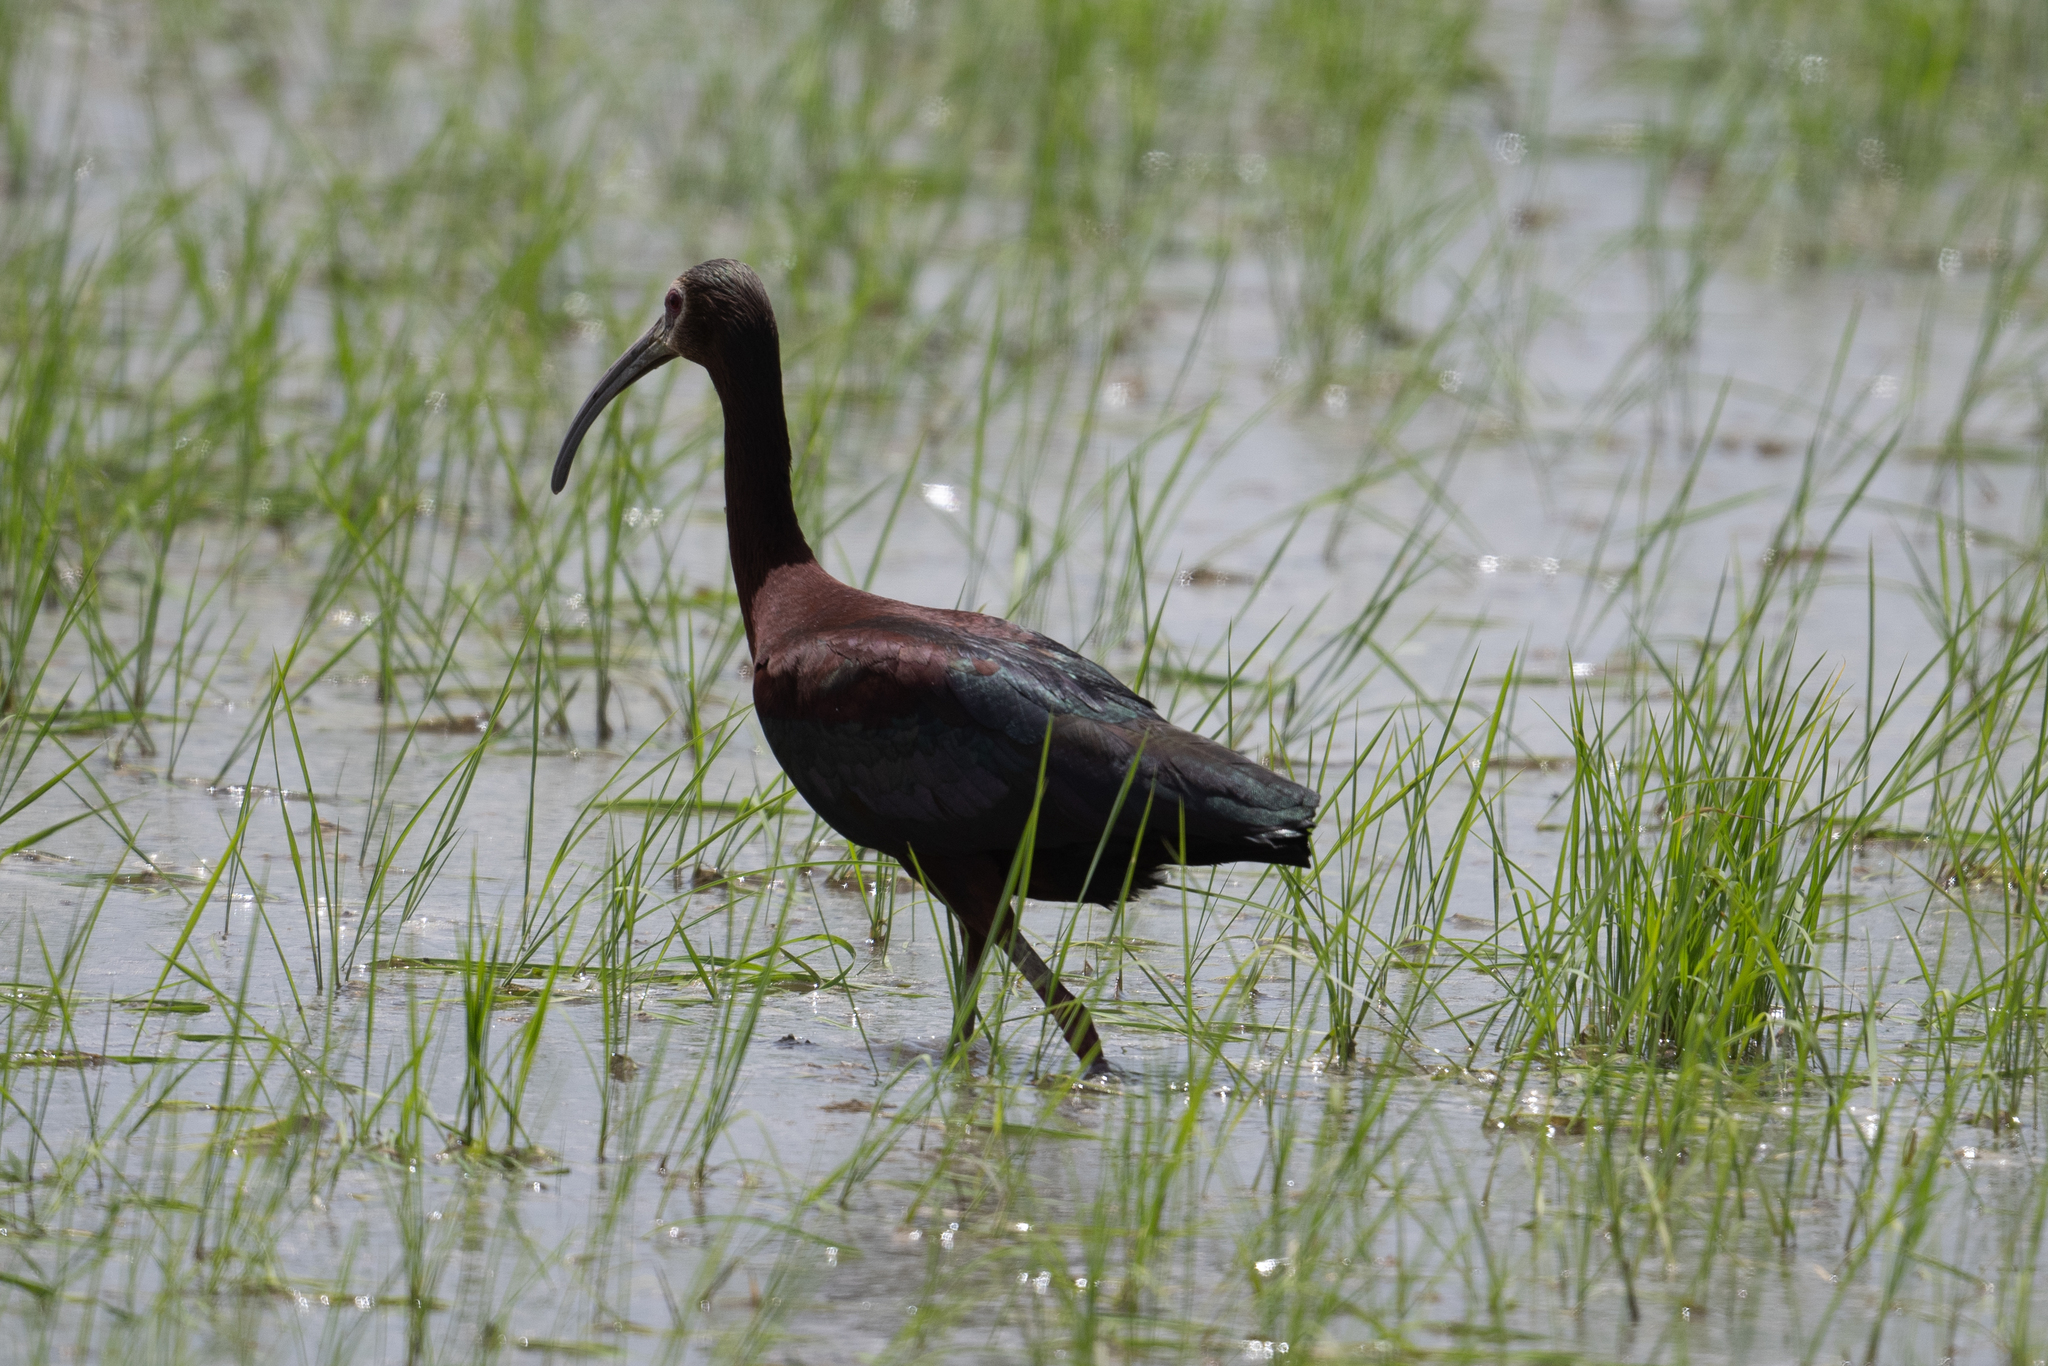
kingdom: Animalia
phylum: Chordata
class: Aves
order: Pelecaniformes
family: Threskiornithidae
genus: Plegadis
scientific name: Plegadis chihi
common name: White-faced ibis
